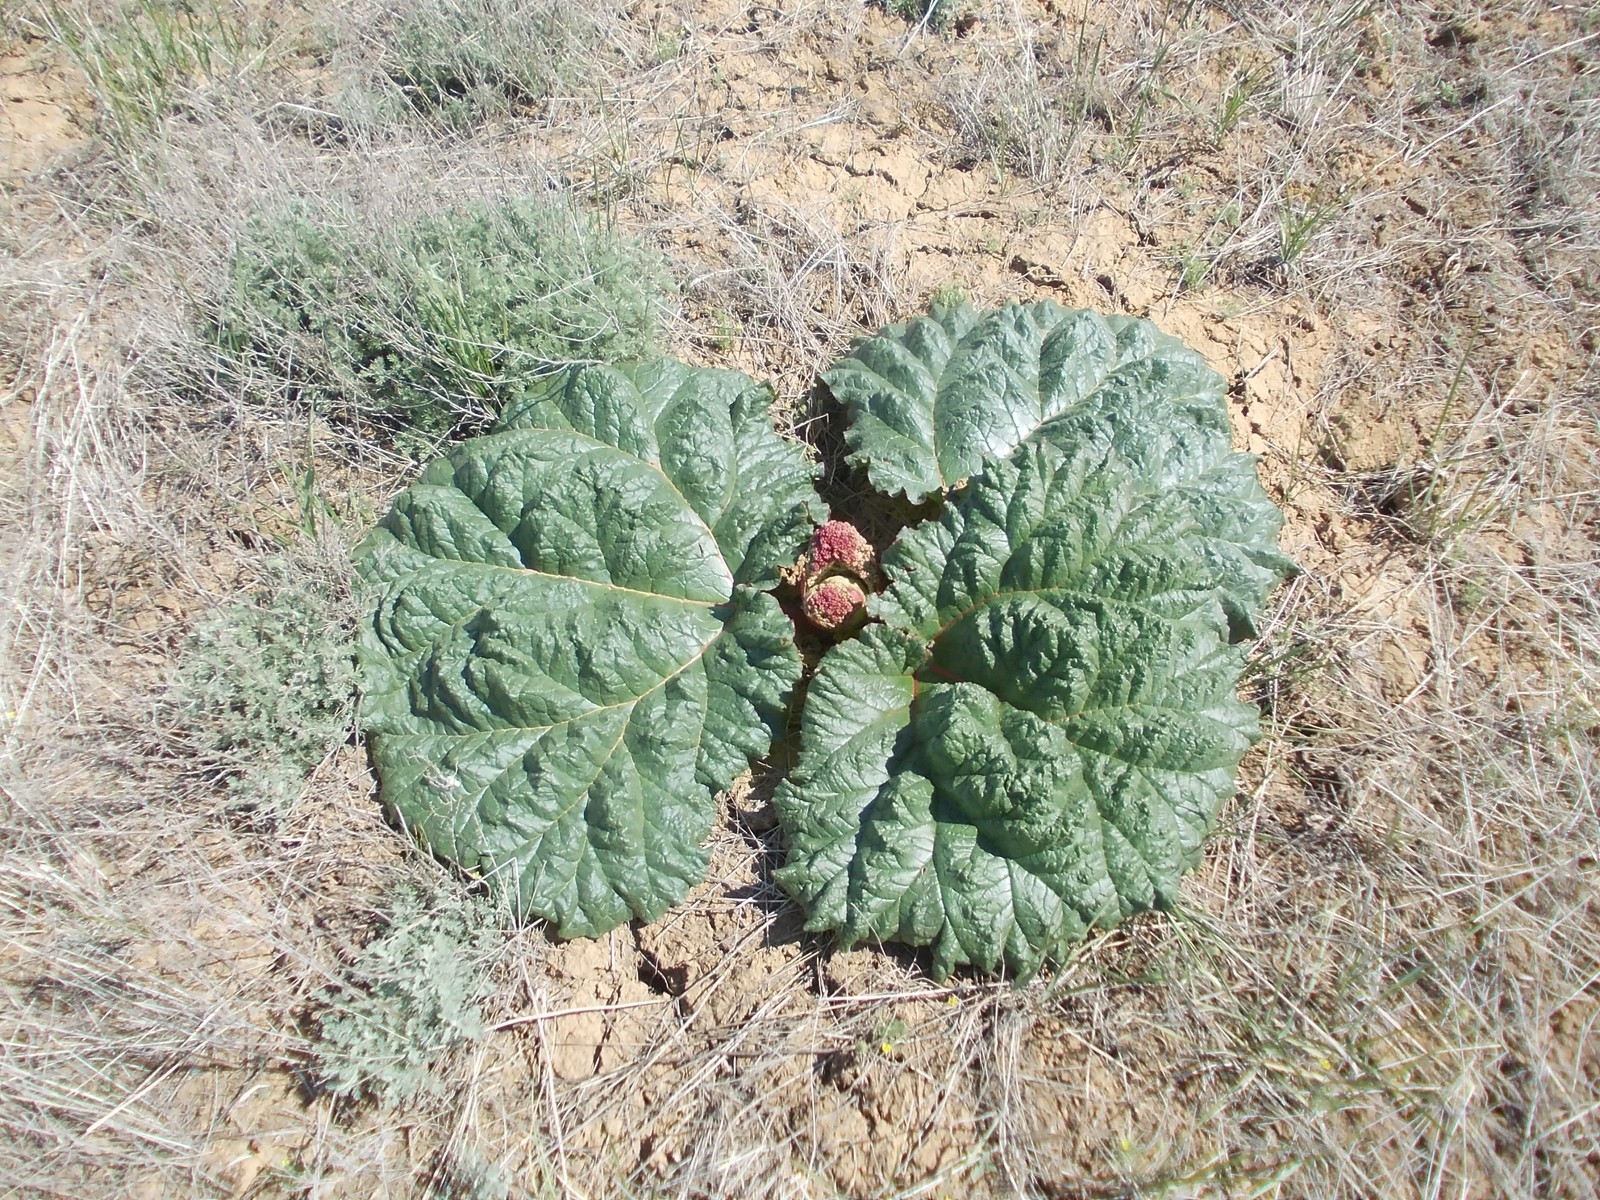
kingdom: Plantae
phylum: Tracheophyta
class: Magnoliopsida
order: Caryophyllales
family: Polygonaceae
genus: Rheum
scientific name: Rheum tataricum
